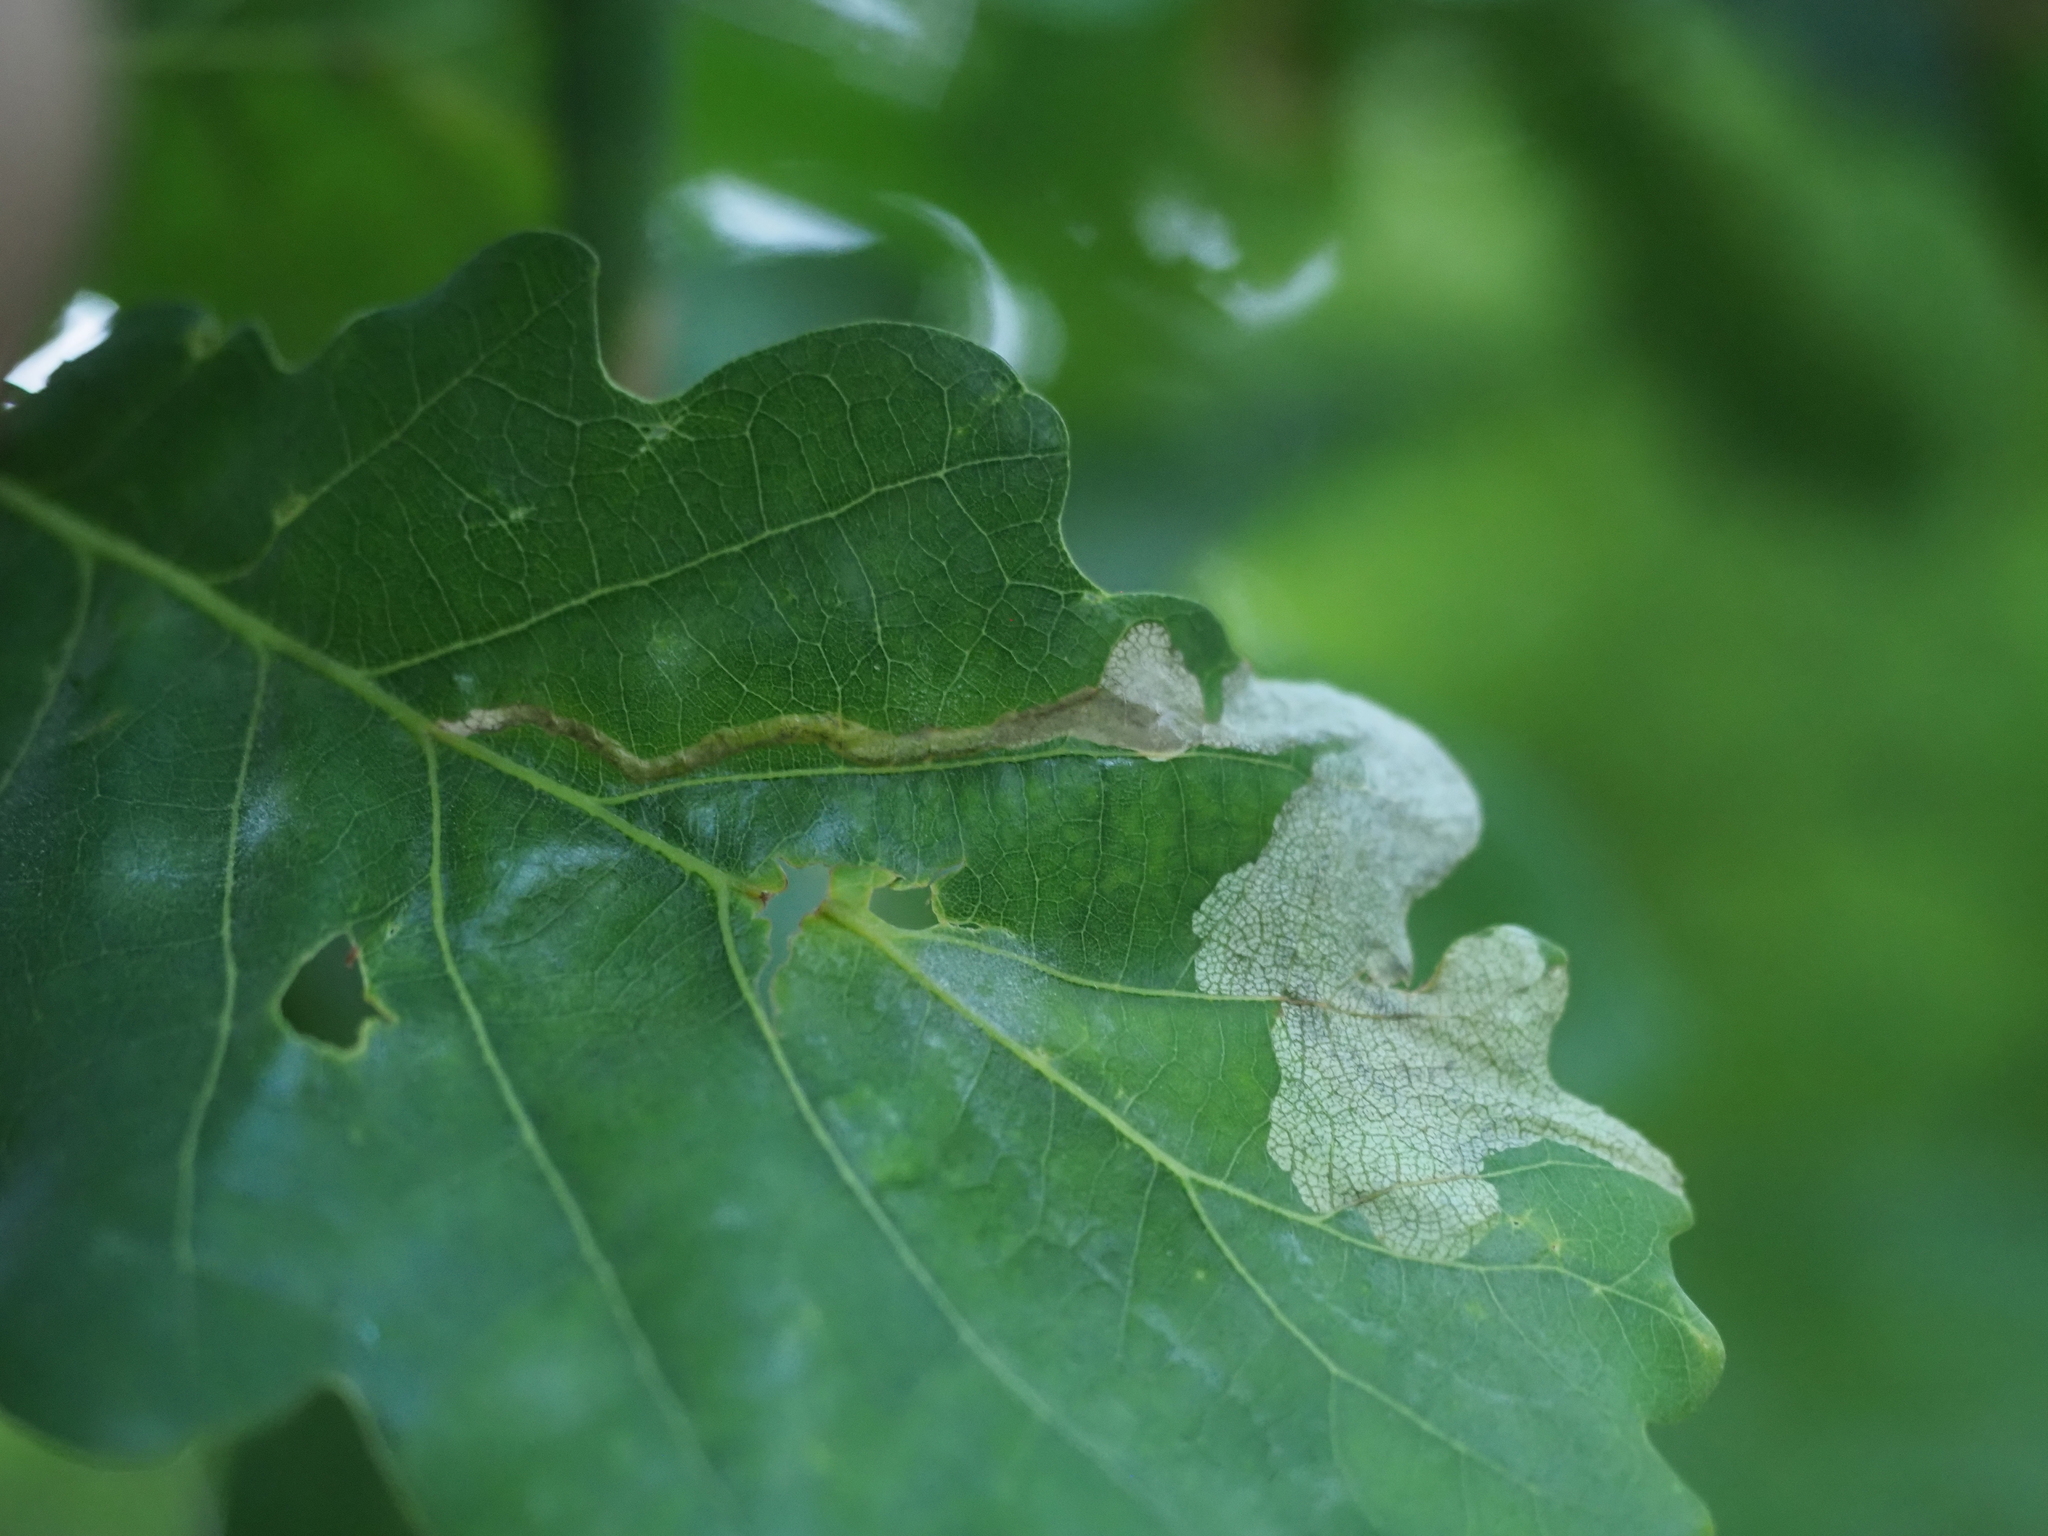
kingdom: Animalia
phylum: Arthropoda
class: Insecta
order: Coleoptera
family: Curculionidae
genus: Orchestes
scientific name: Orchestes quercus
